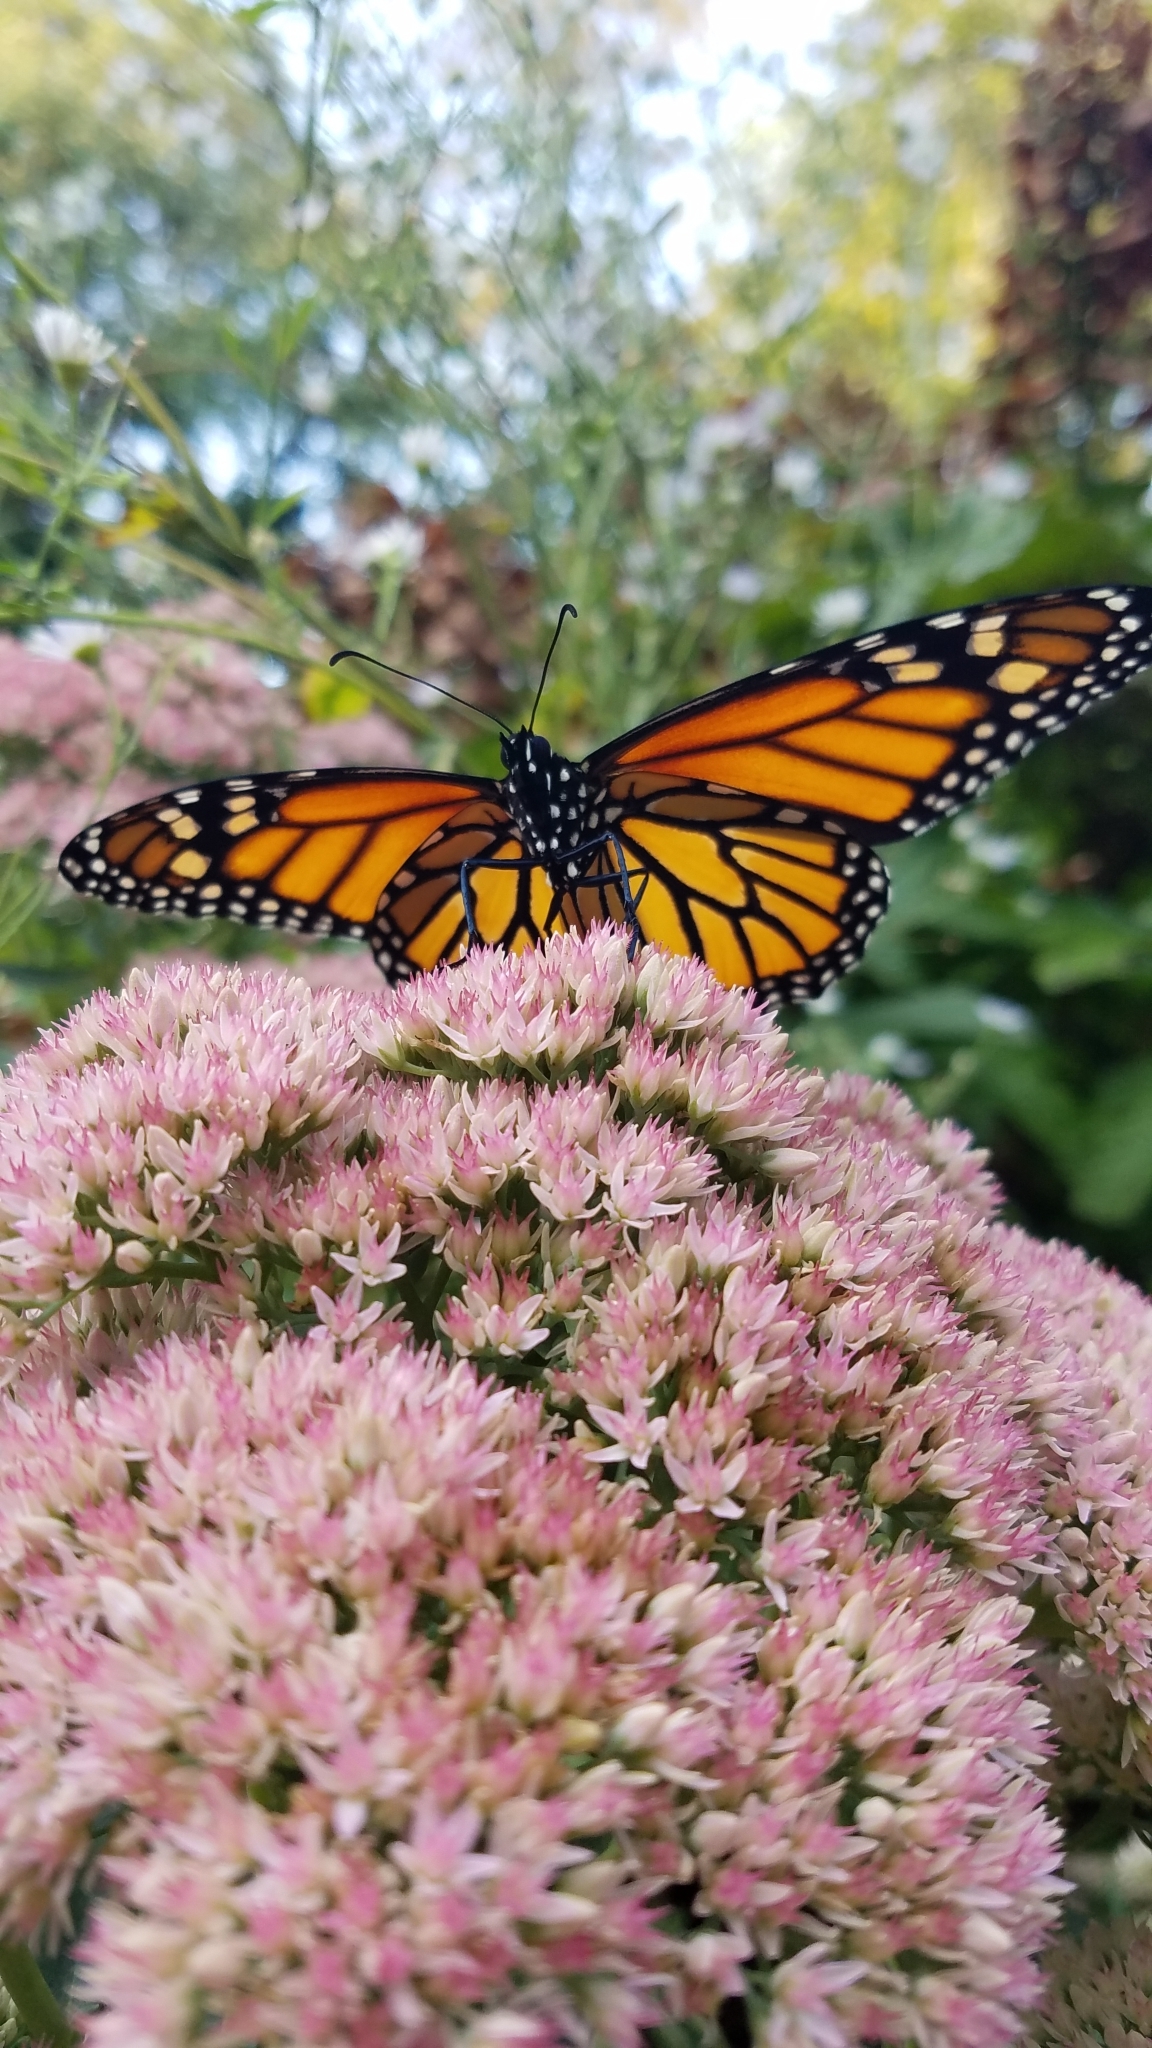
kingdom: Animalia
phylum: Arthropoda
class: Insecta
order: Lepidoptera
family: Nymphalidae
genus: Danaus
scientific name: Danaus plexippus
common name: Monarch
